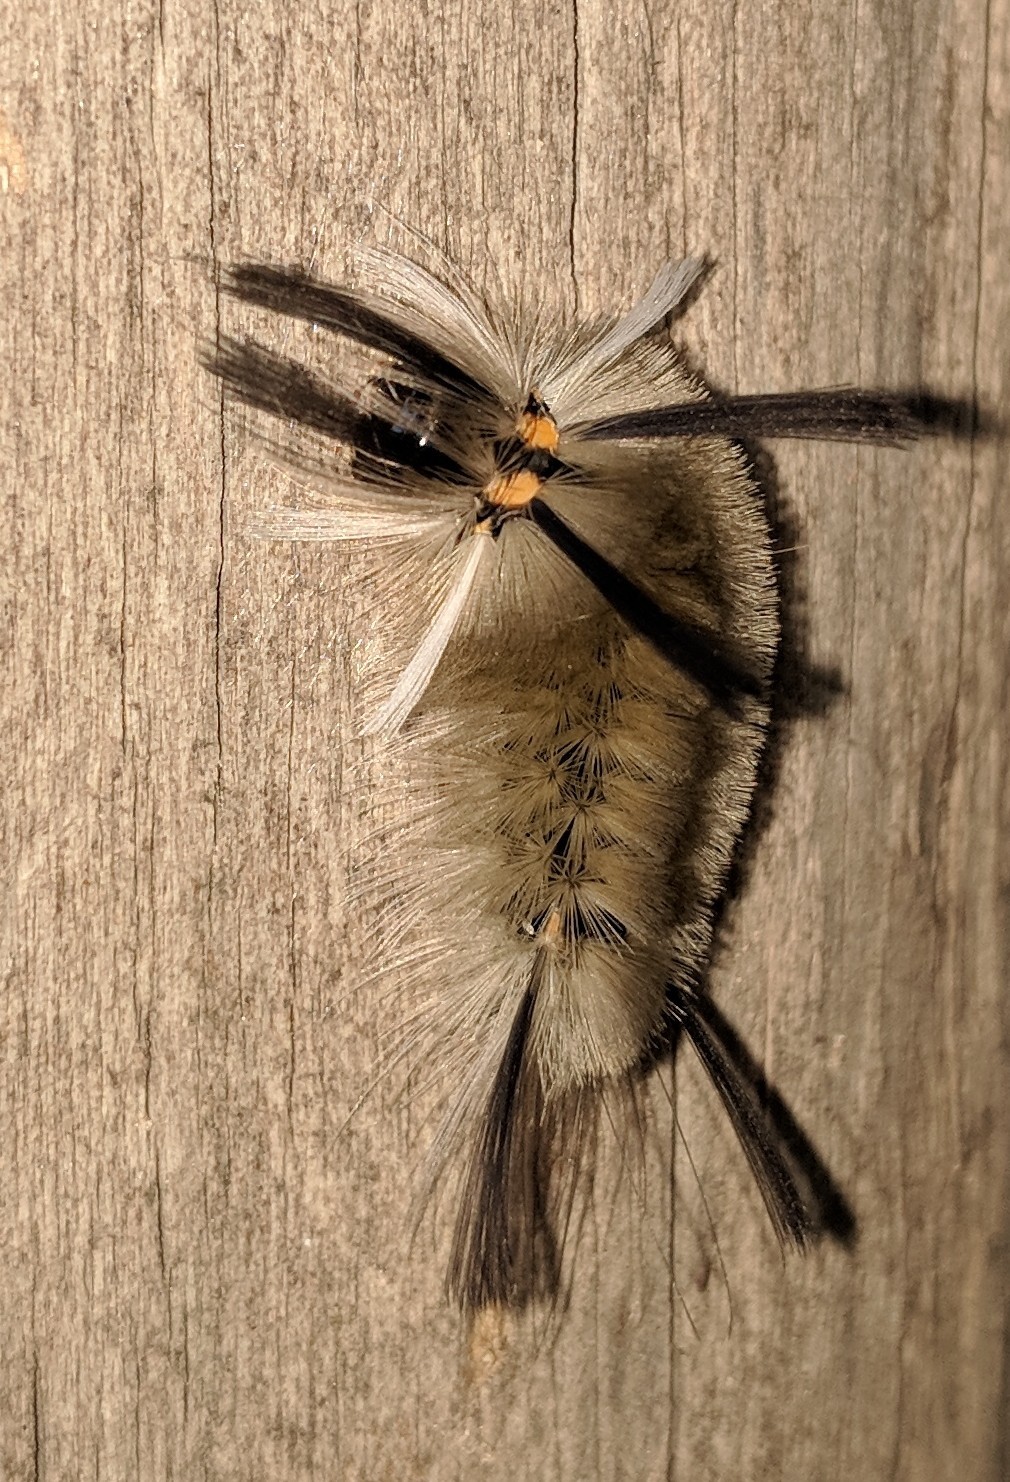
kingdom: Animalia
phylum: Arthropoda
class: Insecta
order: Lepidoptera
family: Erebidae
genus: Halysidota
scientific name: Halysidota tessellaris
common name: Banded tussock moth
